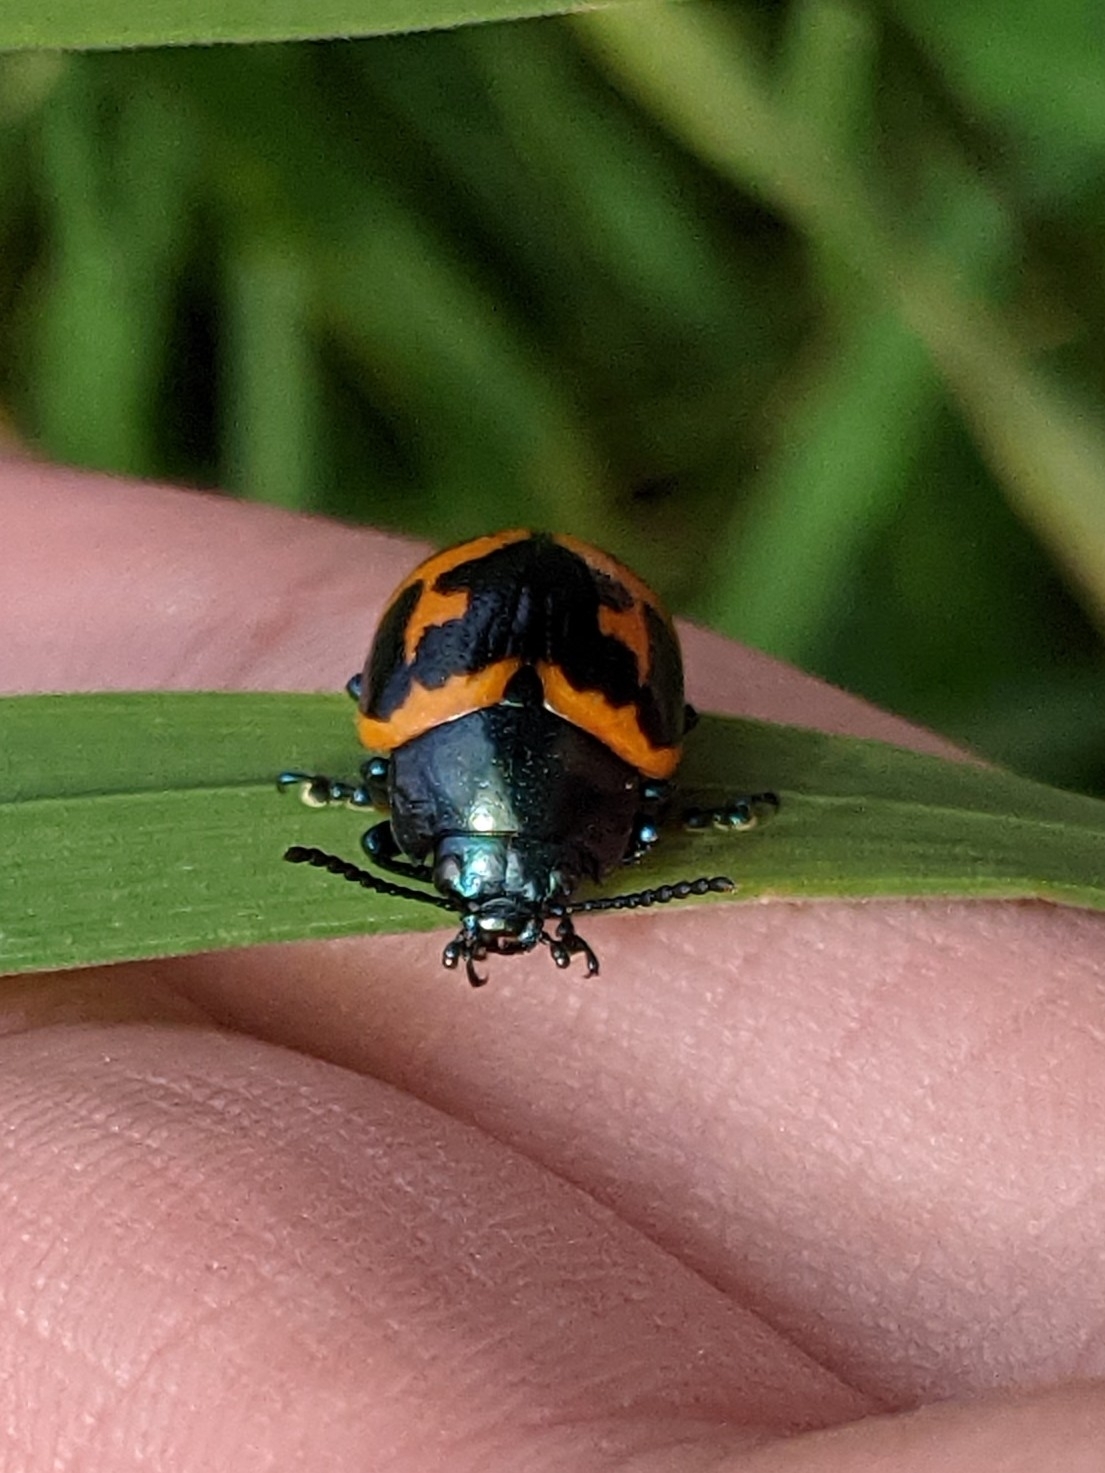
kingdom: Animalia
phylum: Arthropoda
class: Insecta
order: Coleoptera
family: Chrysomelidae
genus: Labidomera
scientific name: Labidomera clivicollis
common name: Swamp milkweed leaf beetle
